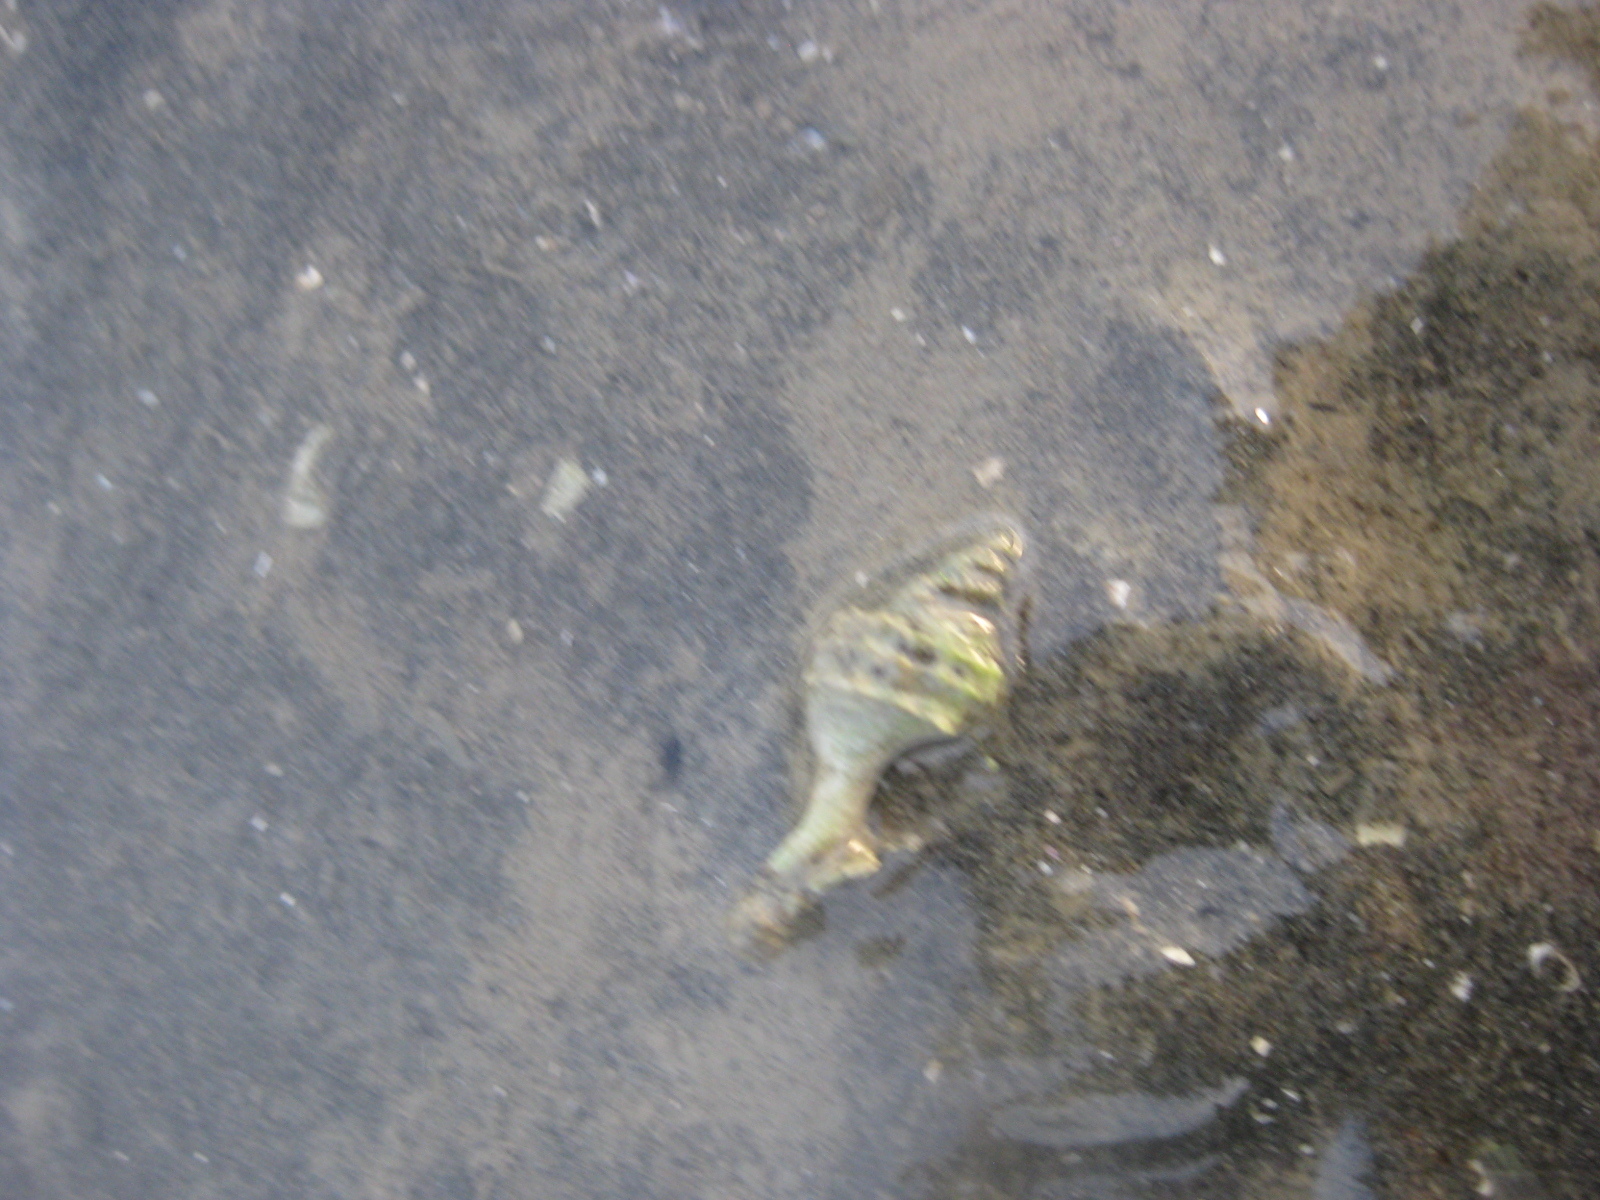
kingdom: Animalia
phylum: Mollusca
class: Gastropoda
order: Neogastropoda
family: Muricidae
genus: Zeatrophon
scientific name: Zeatrophon ambiguus
